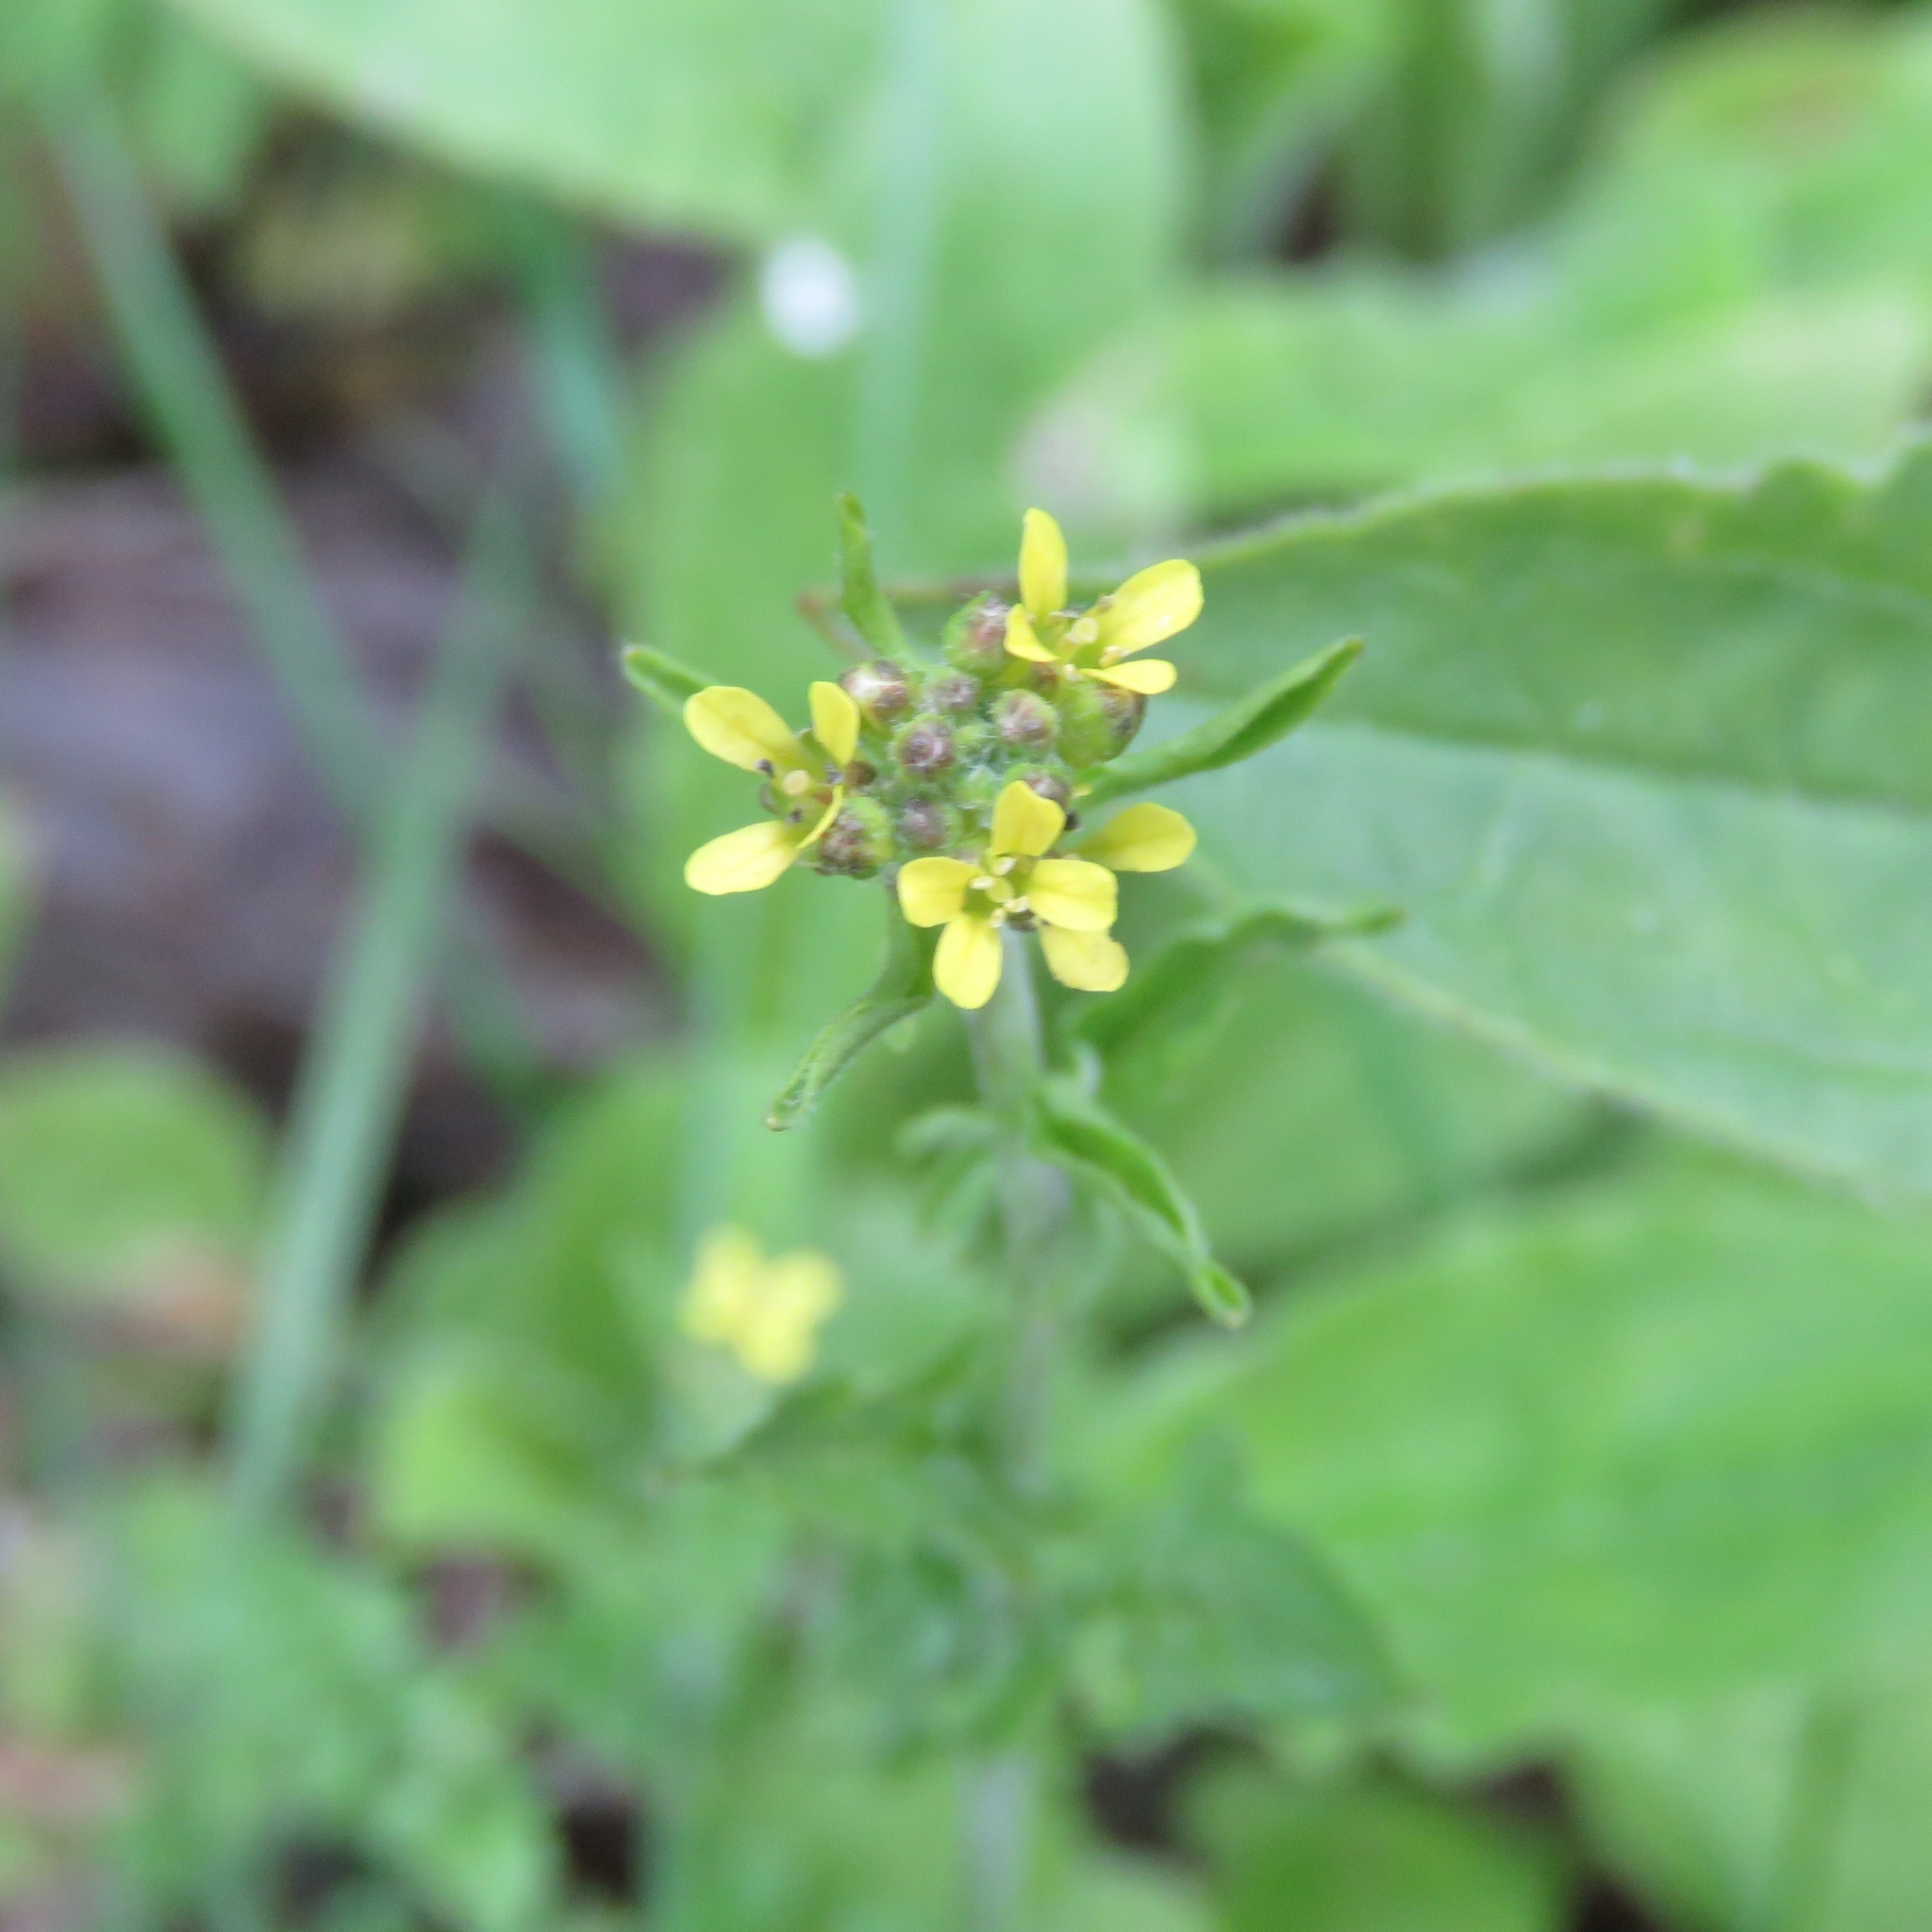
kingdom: Plantae
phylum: Tracheophyta
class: Magnoliopsida
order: Brassicales
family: Brassicaceae
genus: Sisymbrium
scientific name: Sisymbrium officinale
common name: Hedge mustard
